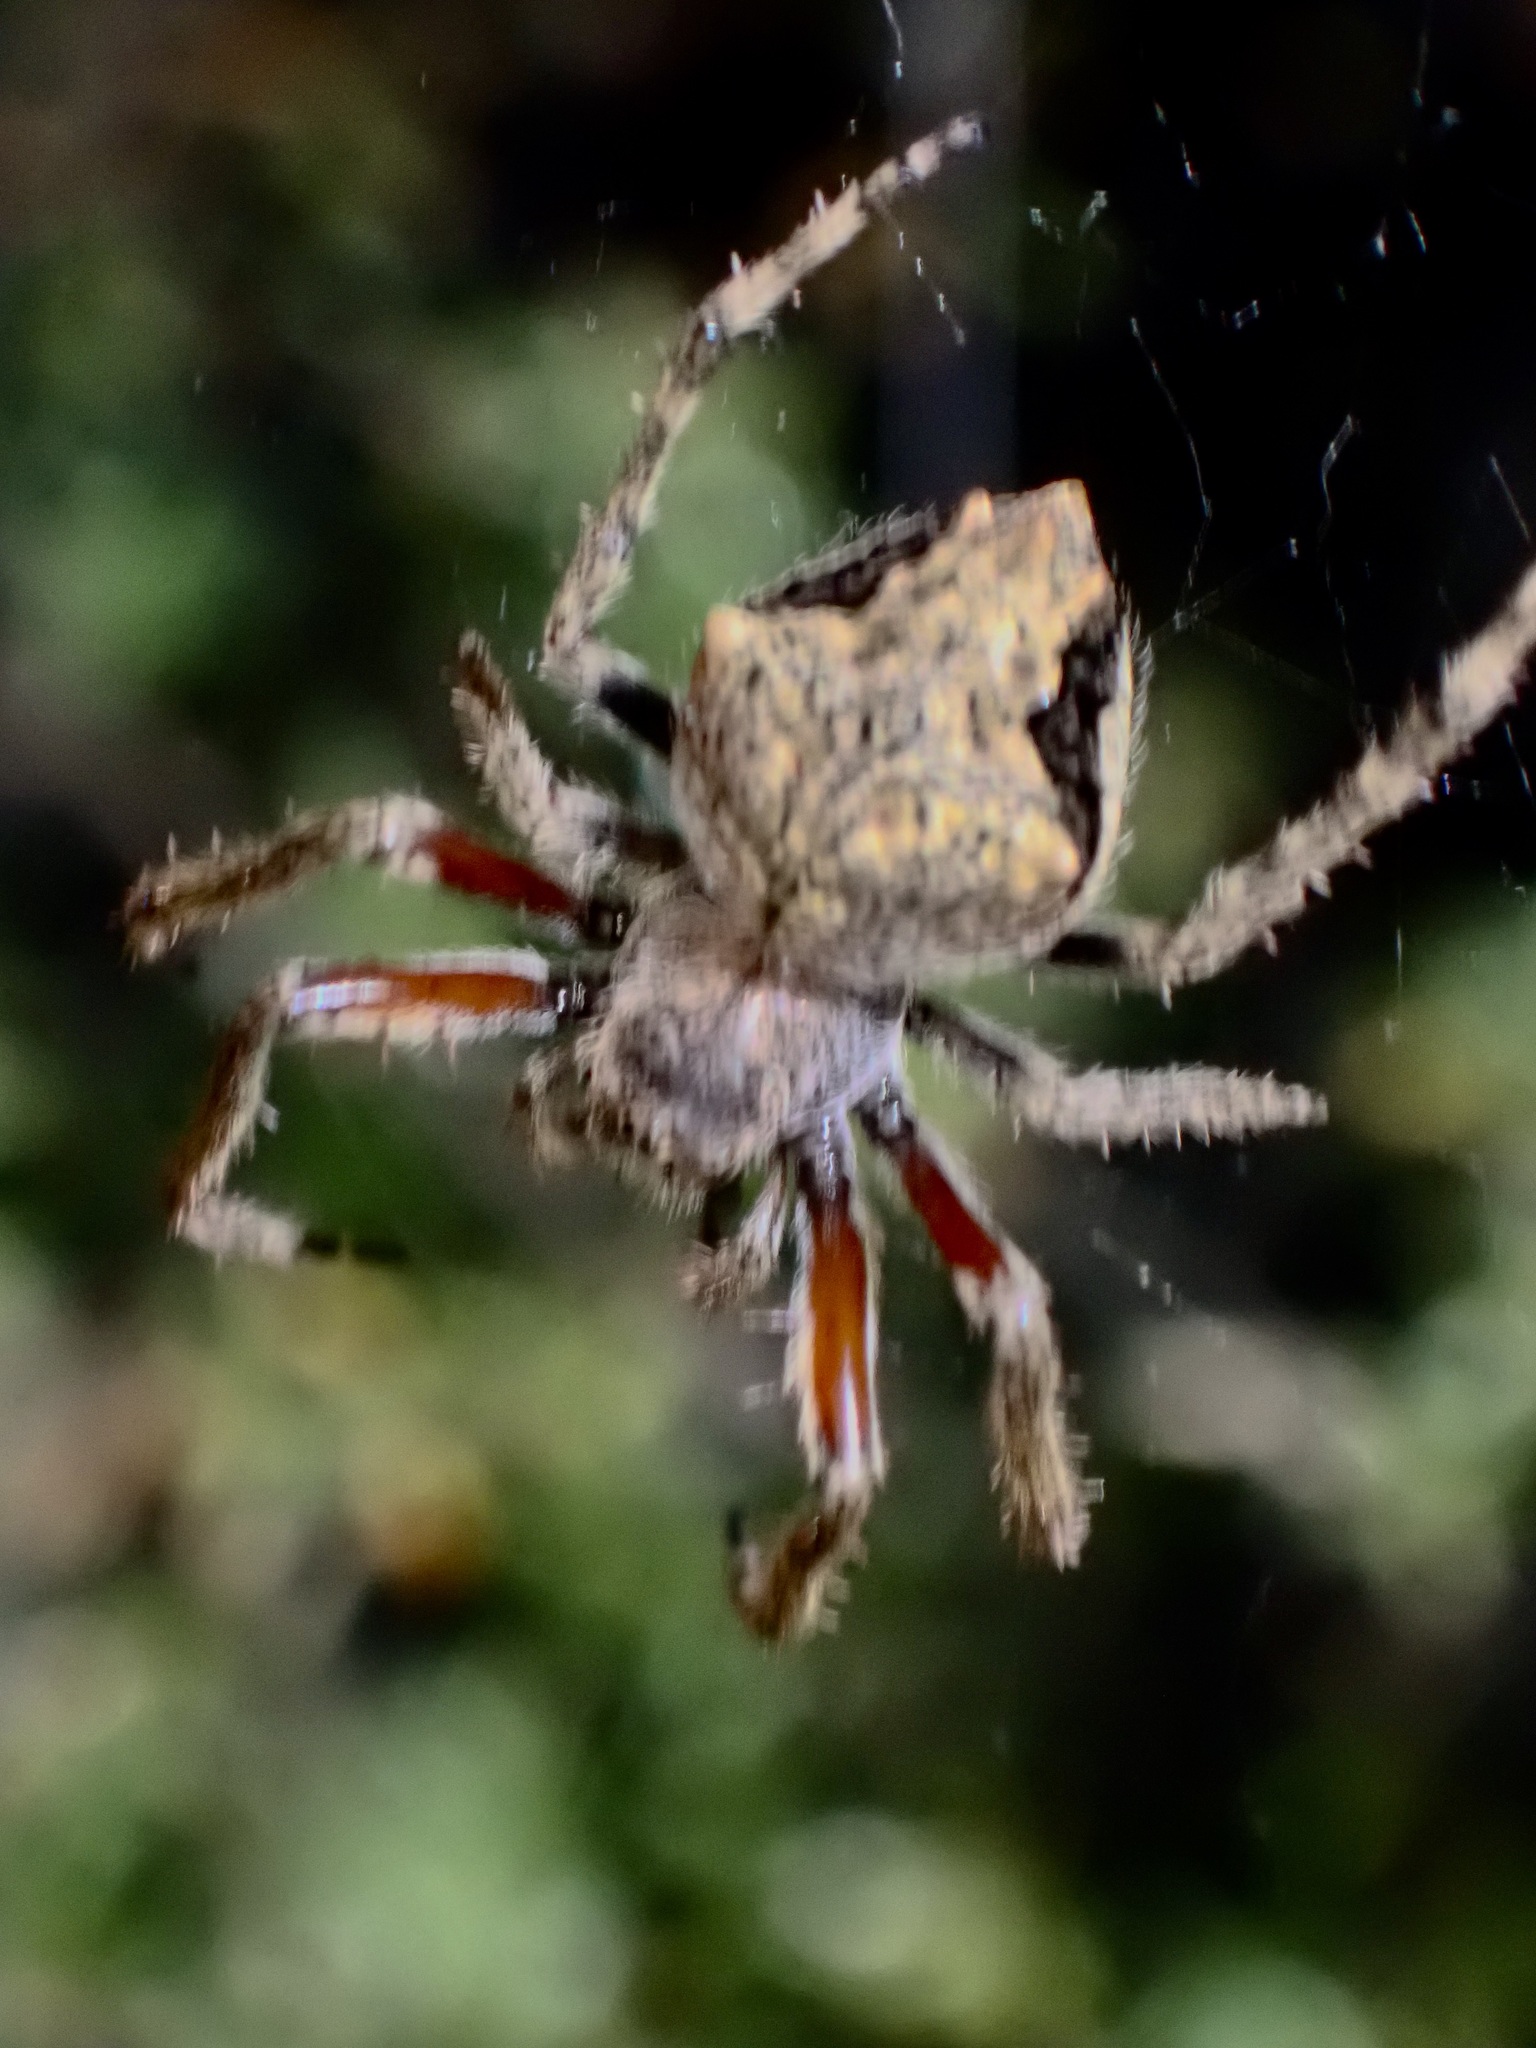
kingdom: Animalia
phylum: Arthropoda
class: Arachnida
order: Araneae
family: Araneidae
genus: Eriophora
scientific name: Eriophora pustulosa
